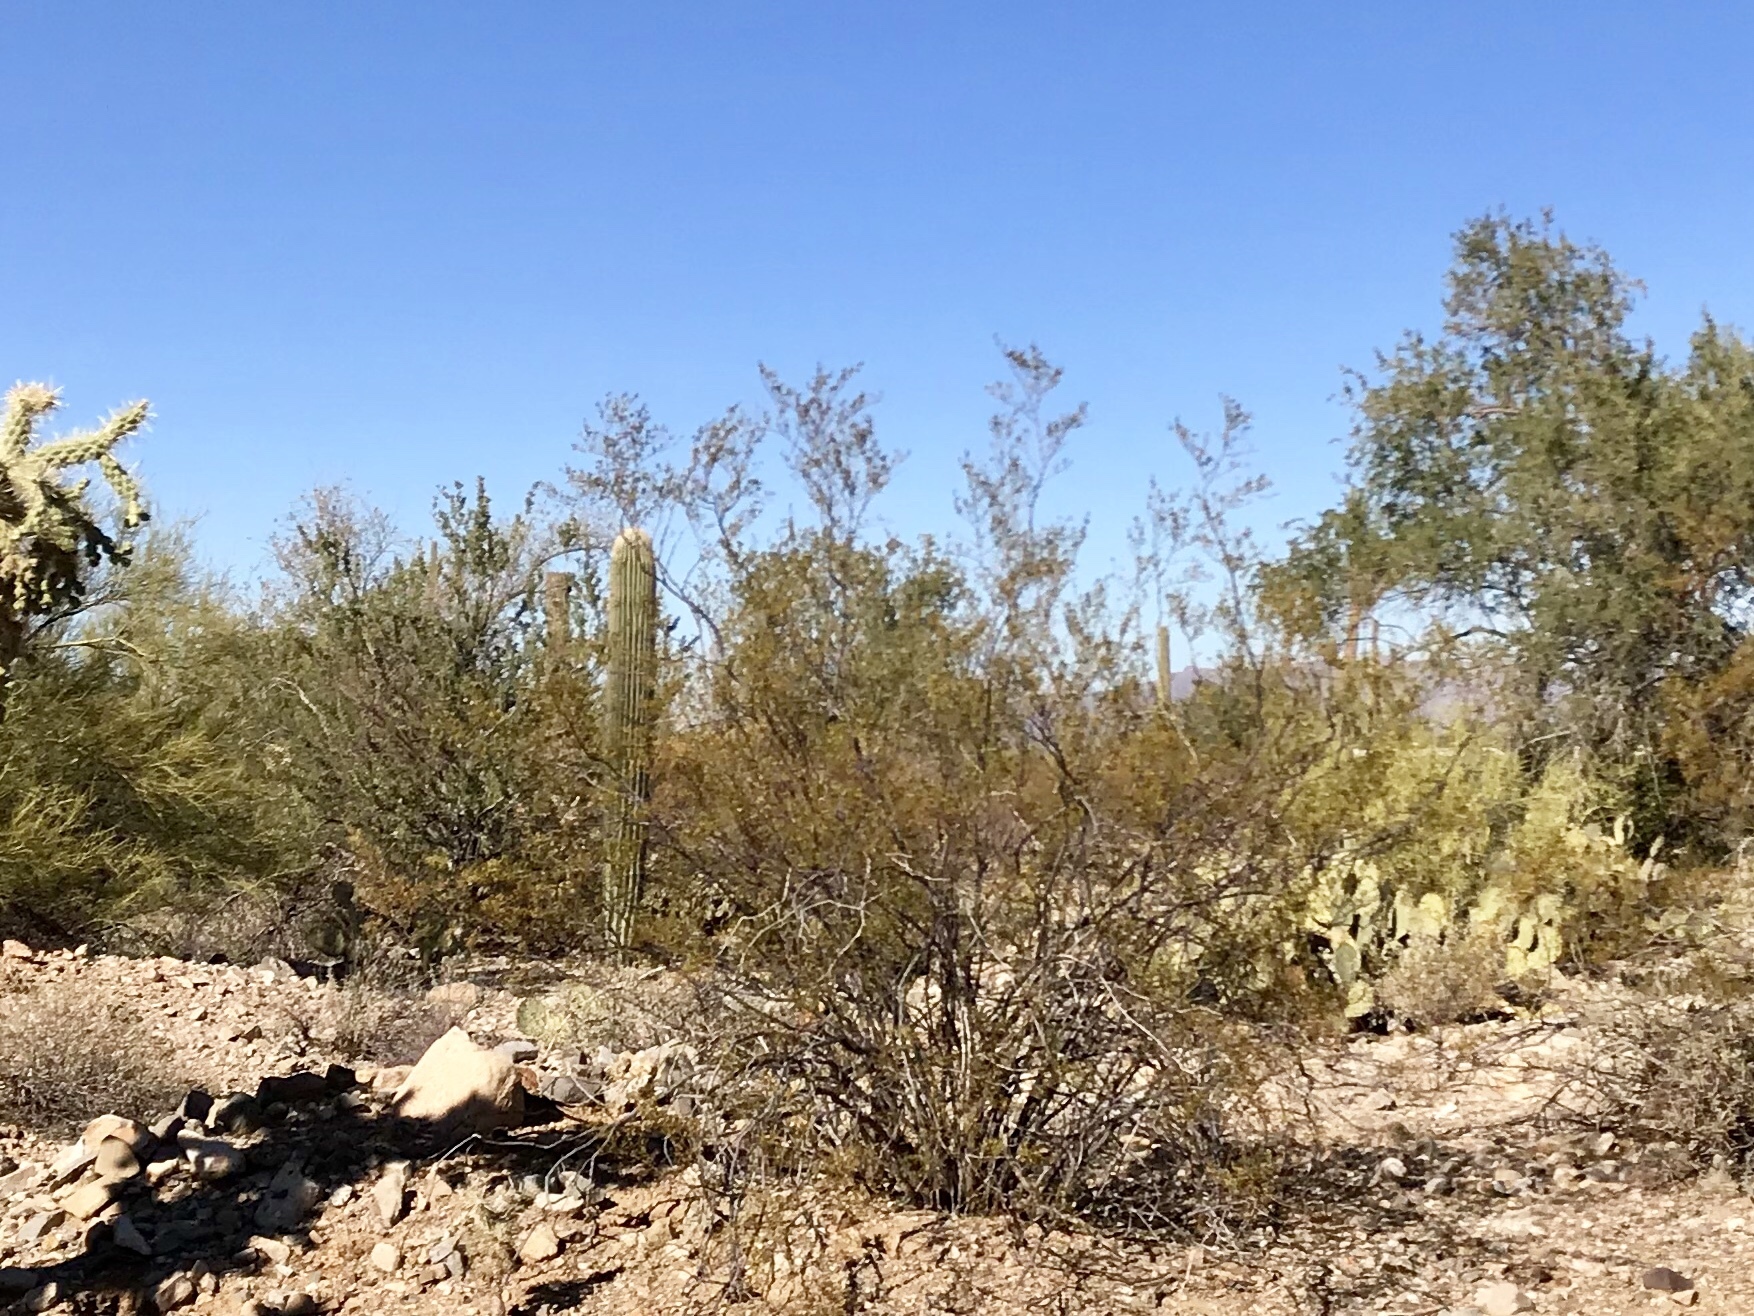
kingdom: Plantae
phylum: Tracheophyta
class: Magnoliopsida
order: Zygophyllales
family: Zygophyllaceae
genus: Larrea
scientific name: Larrea tridentata
